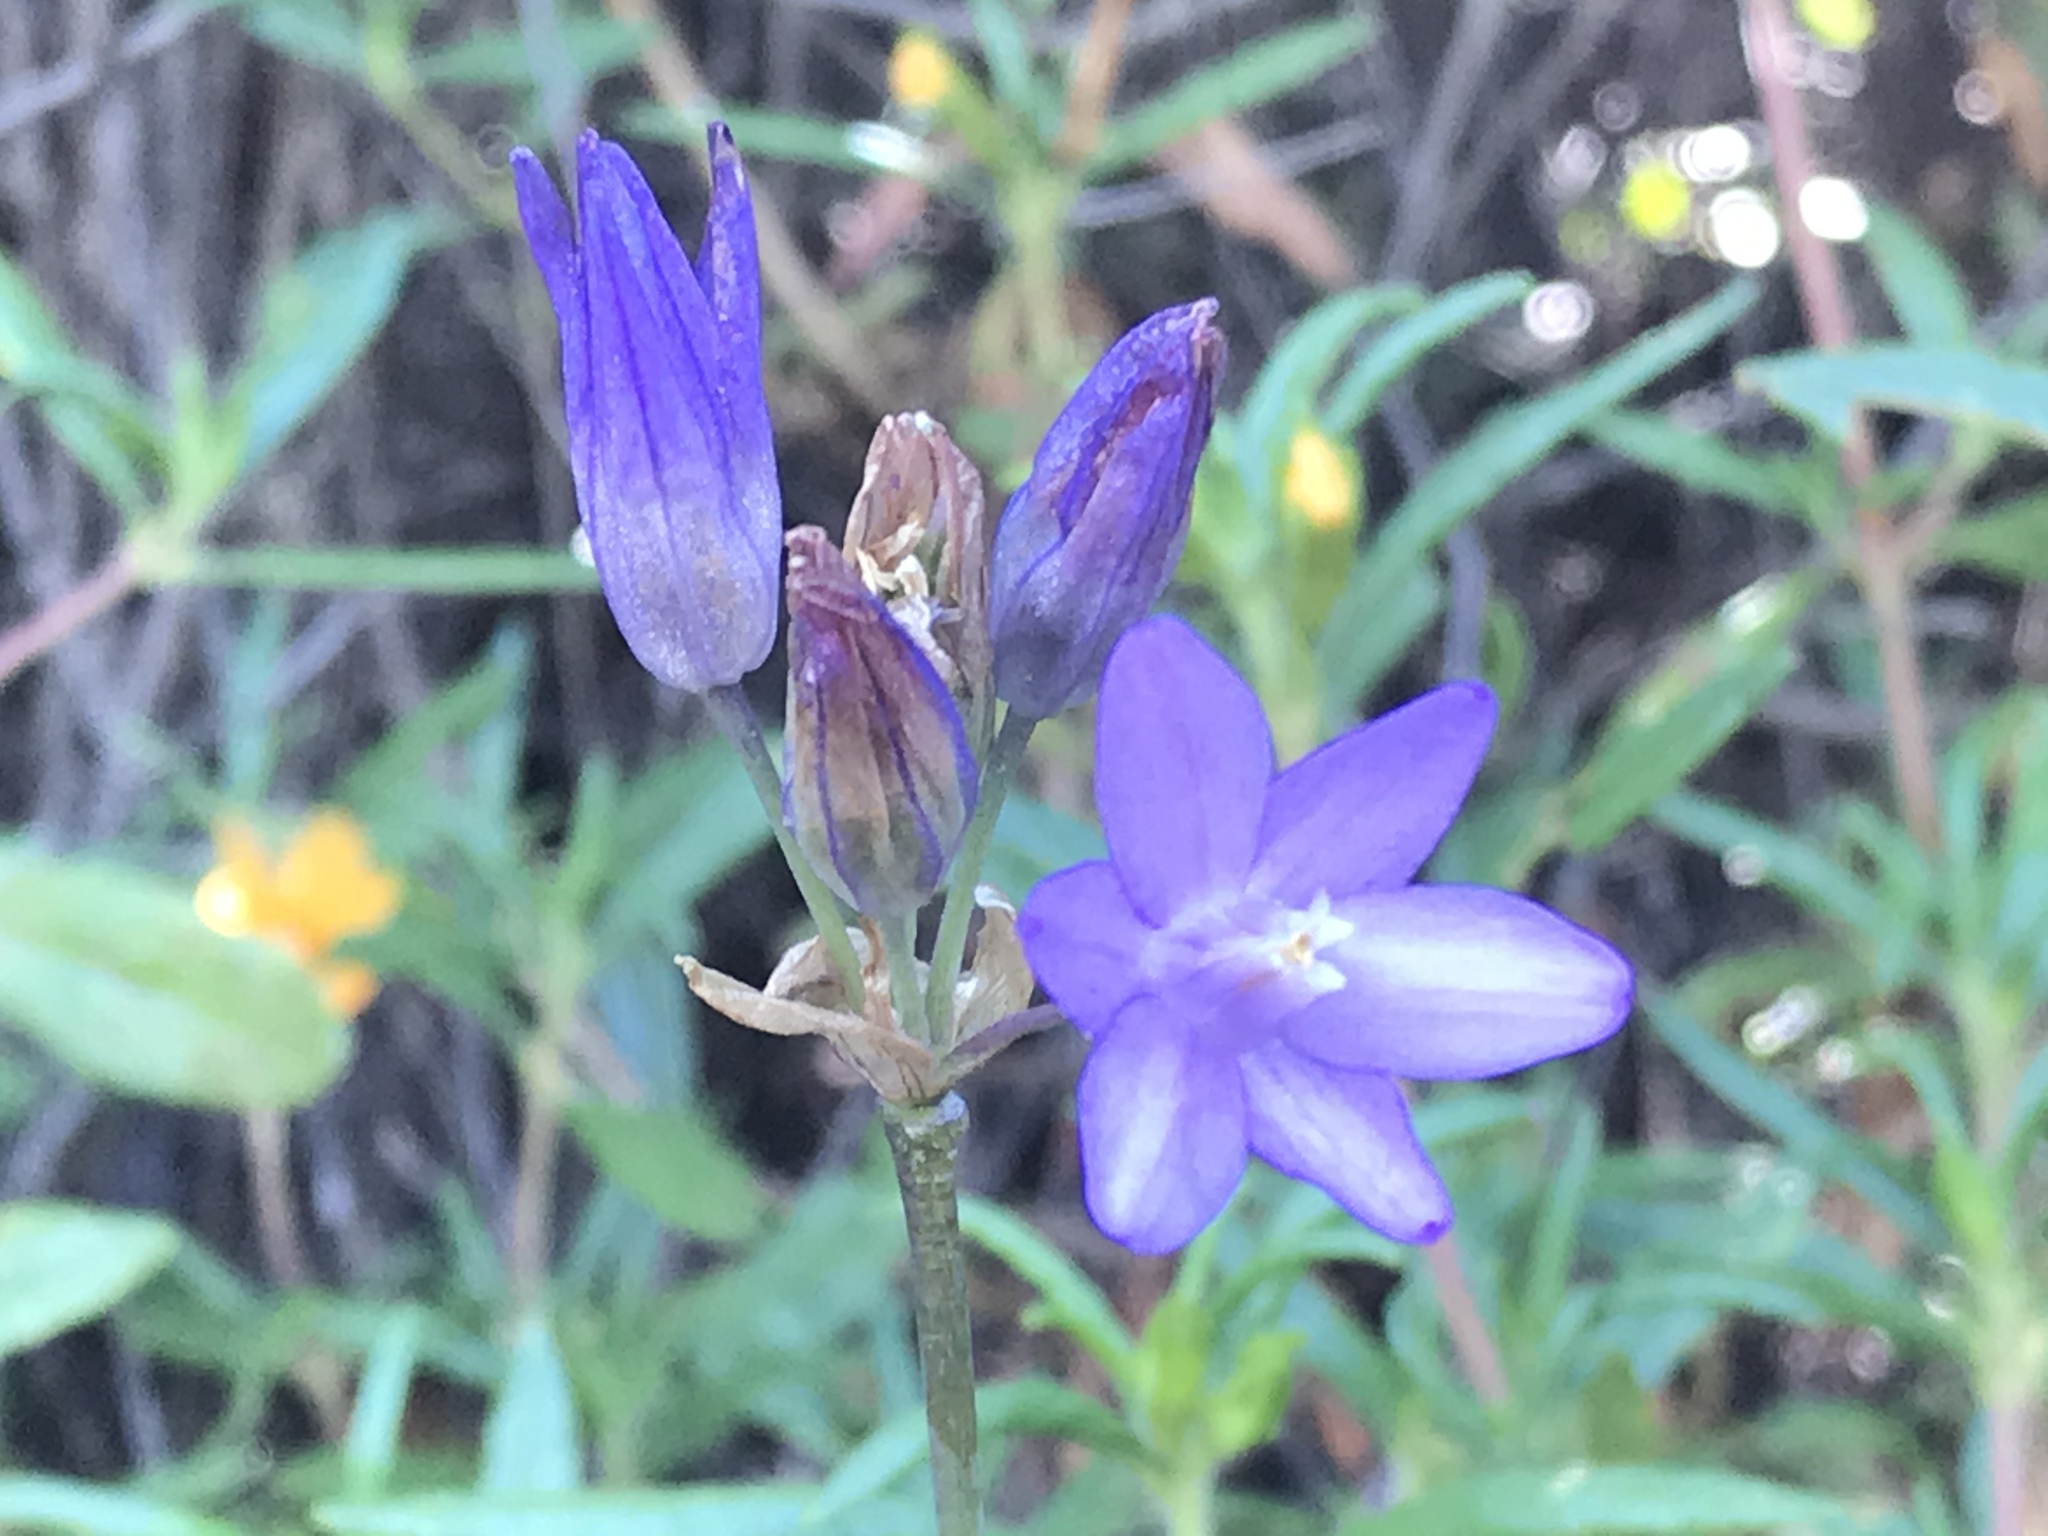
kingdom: Plantae
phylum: Tracheophyta
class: Liliopsida
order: Asparagales
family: Asparagaceae
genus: Dipterostemon
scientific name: Dipterostemon capitatus
